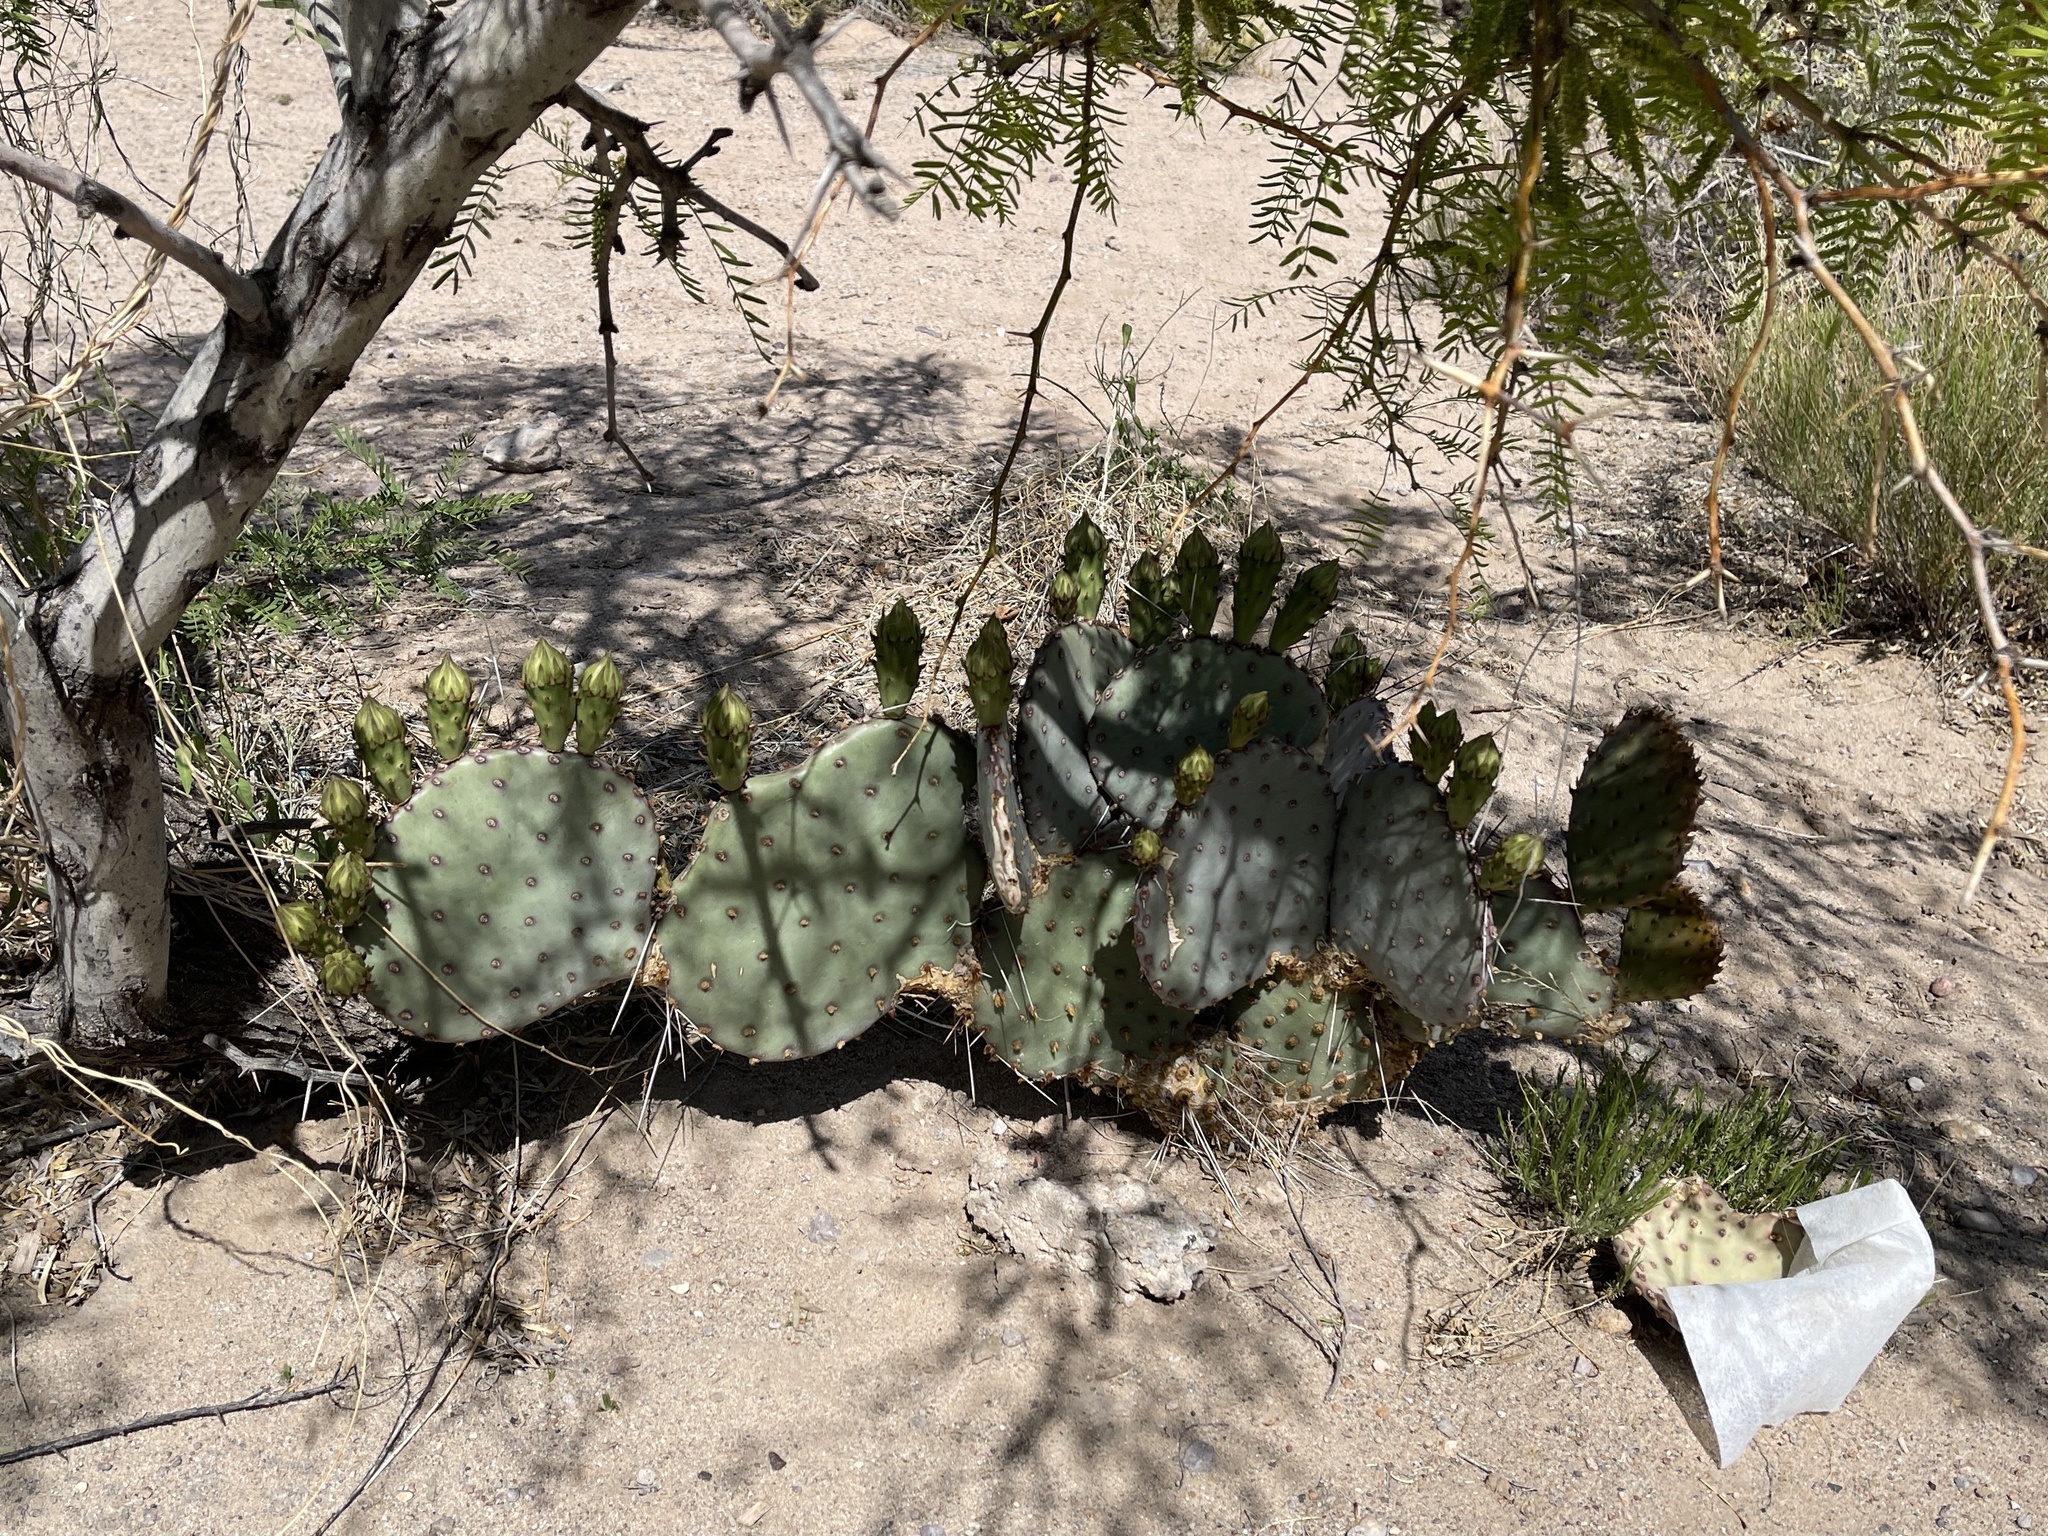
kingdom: Plantae
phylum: Tracheophyta
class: Magnoliopsida
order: Caryophyllales
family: Cactaceae
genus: Opuntia
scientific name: Opuntia macrocentra
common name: Purple prickly-pear
